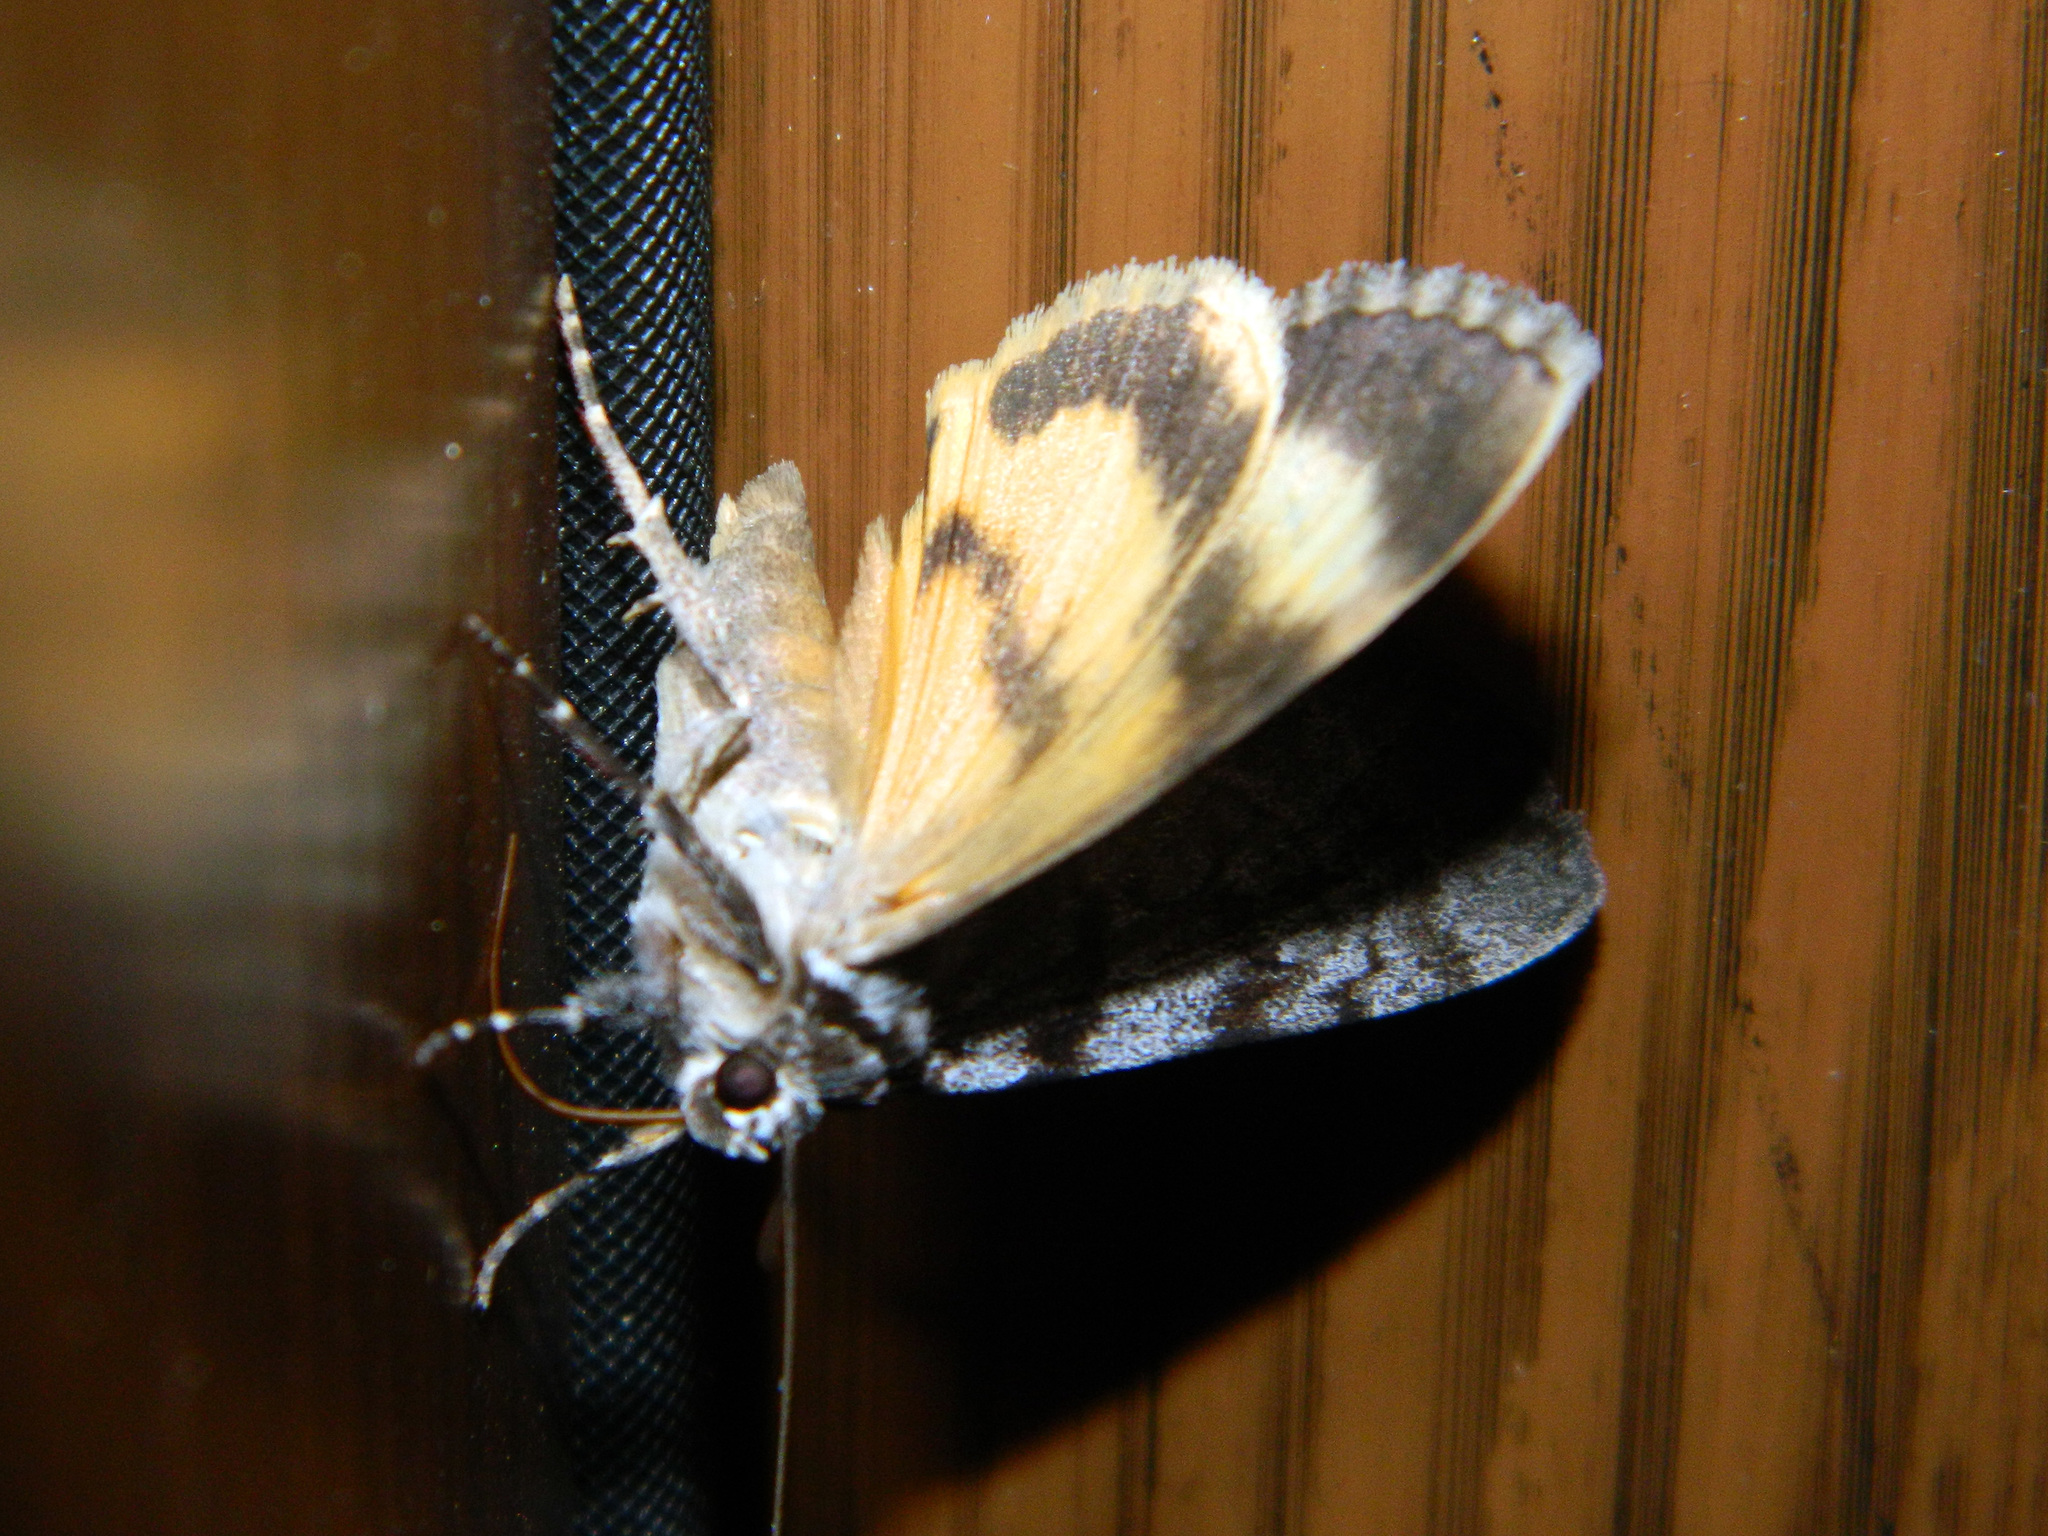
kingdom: Animalia
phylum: Arthropoda
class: Insecta
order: Lepidoptera
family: Erebidae
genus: Catocala
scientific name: Catocala sordida
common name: Sordid underwing
